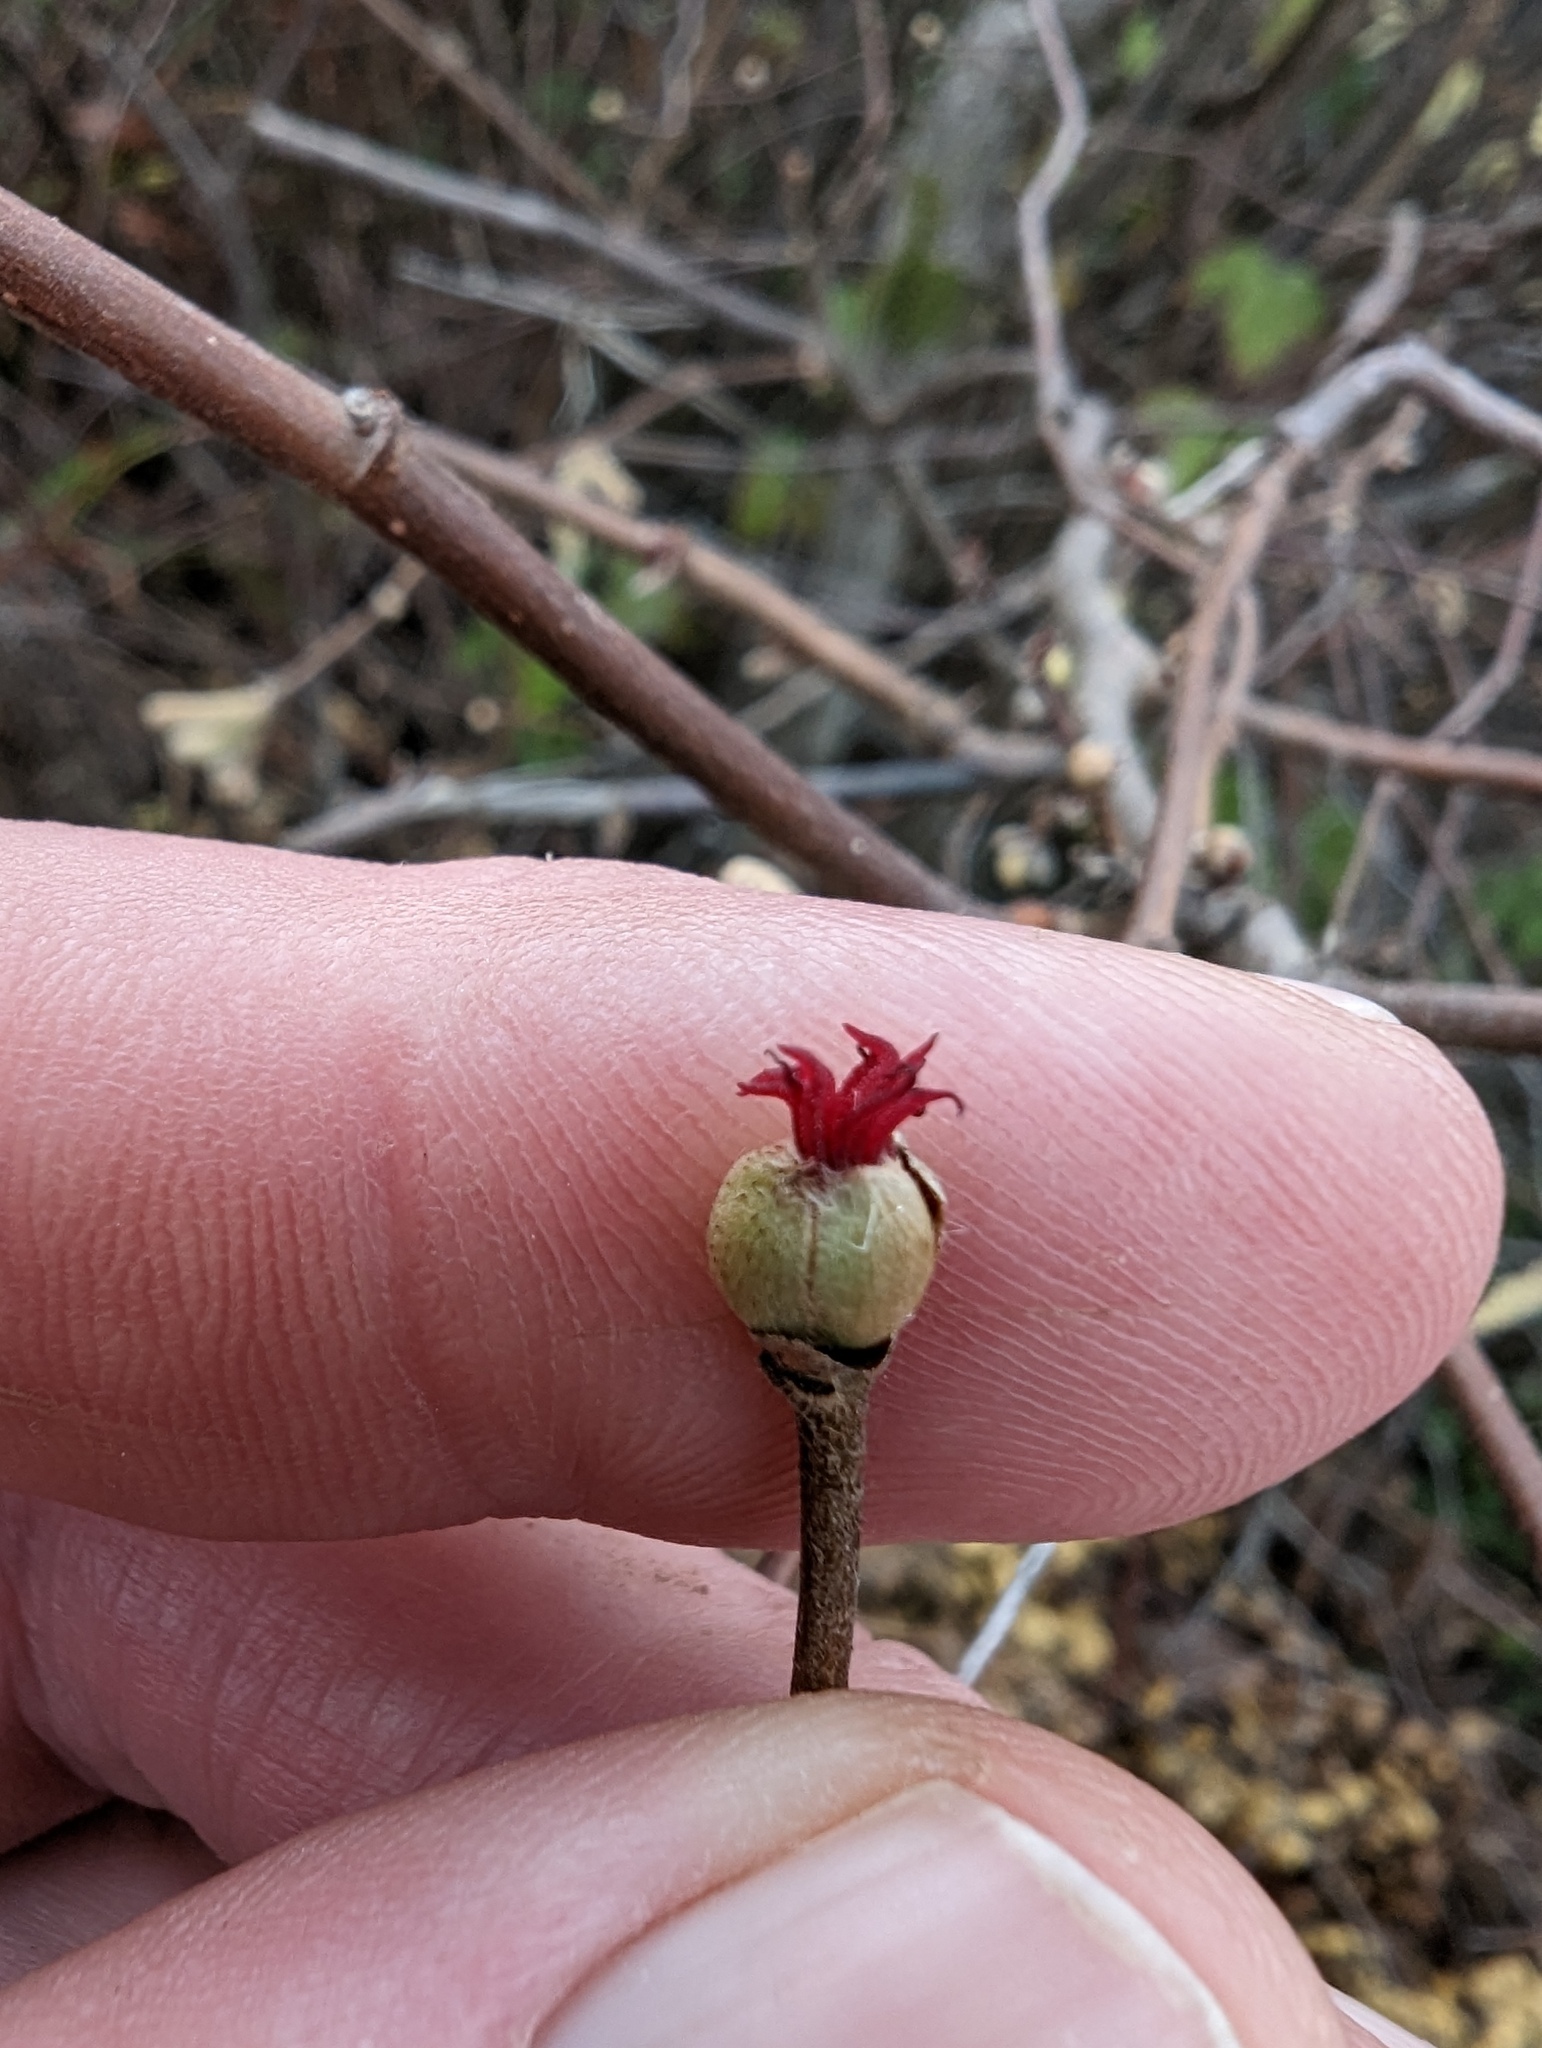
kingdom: Plantae
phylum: Tracheophyta
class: Magnoliopsida
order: Fagales
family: Betulaceae
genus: Corylus
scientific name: Corylus cornuta
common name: Beaked hazel
